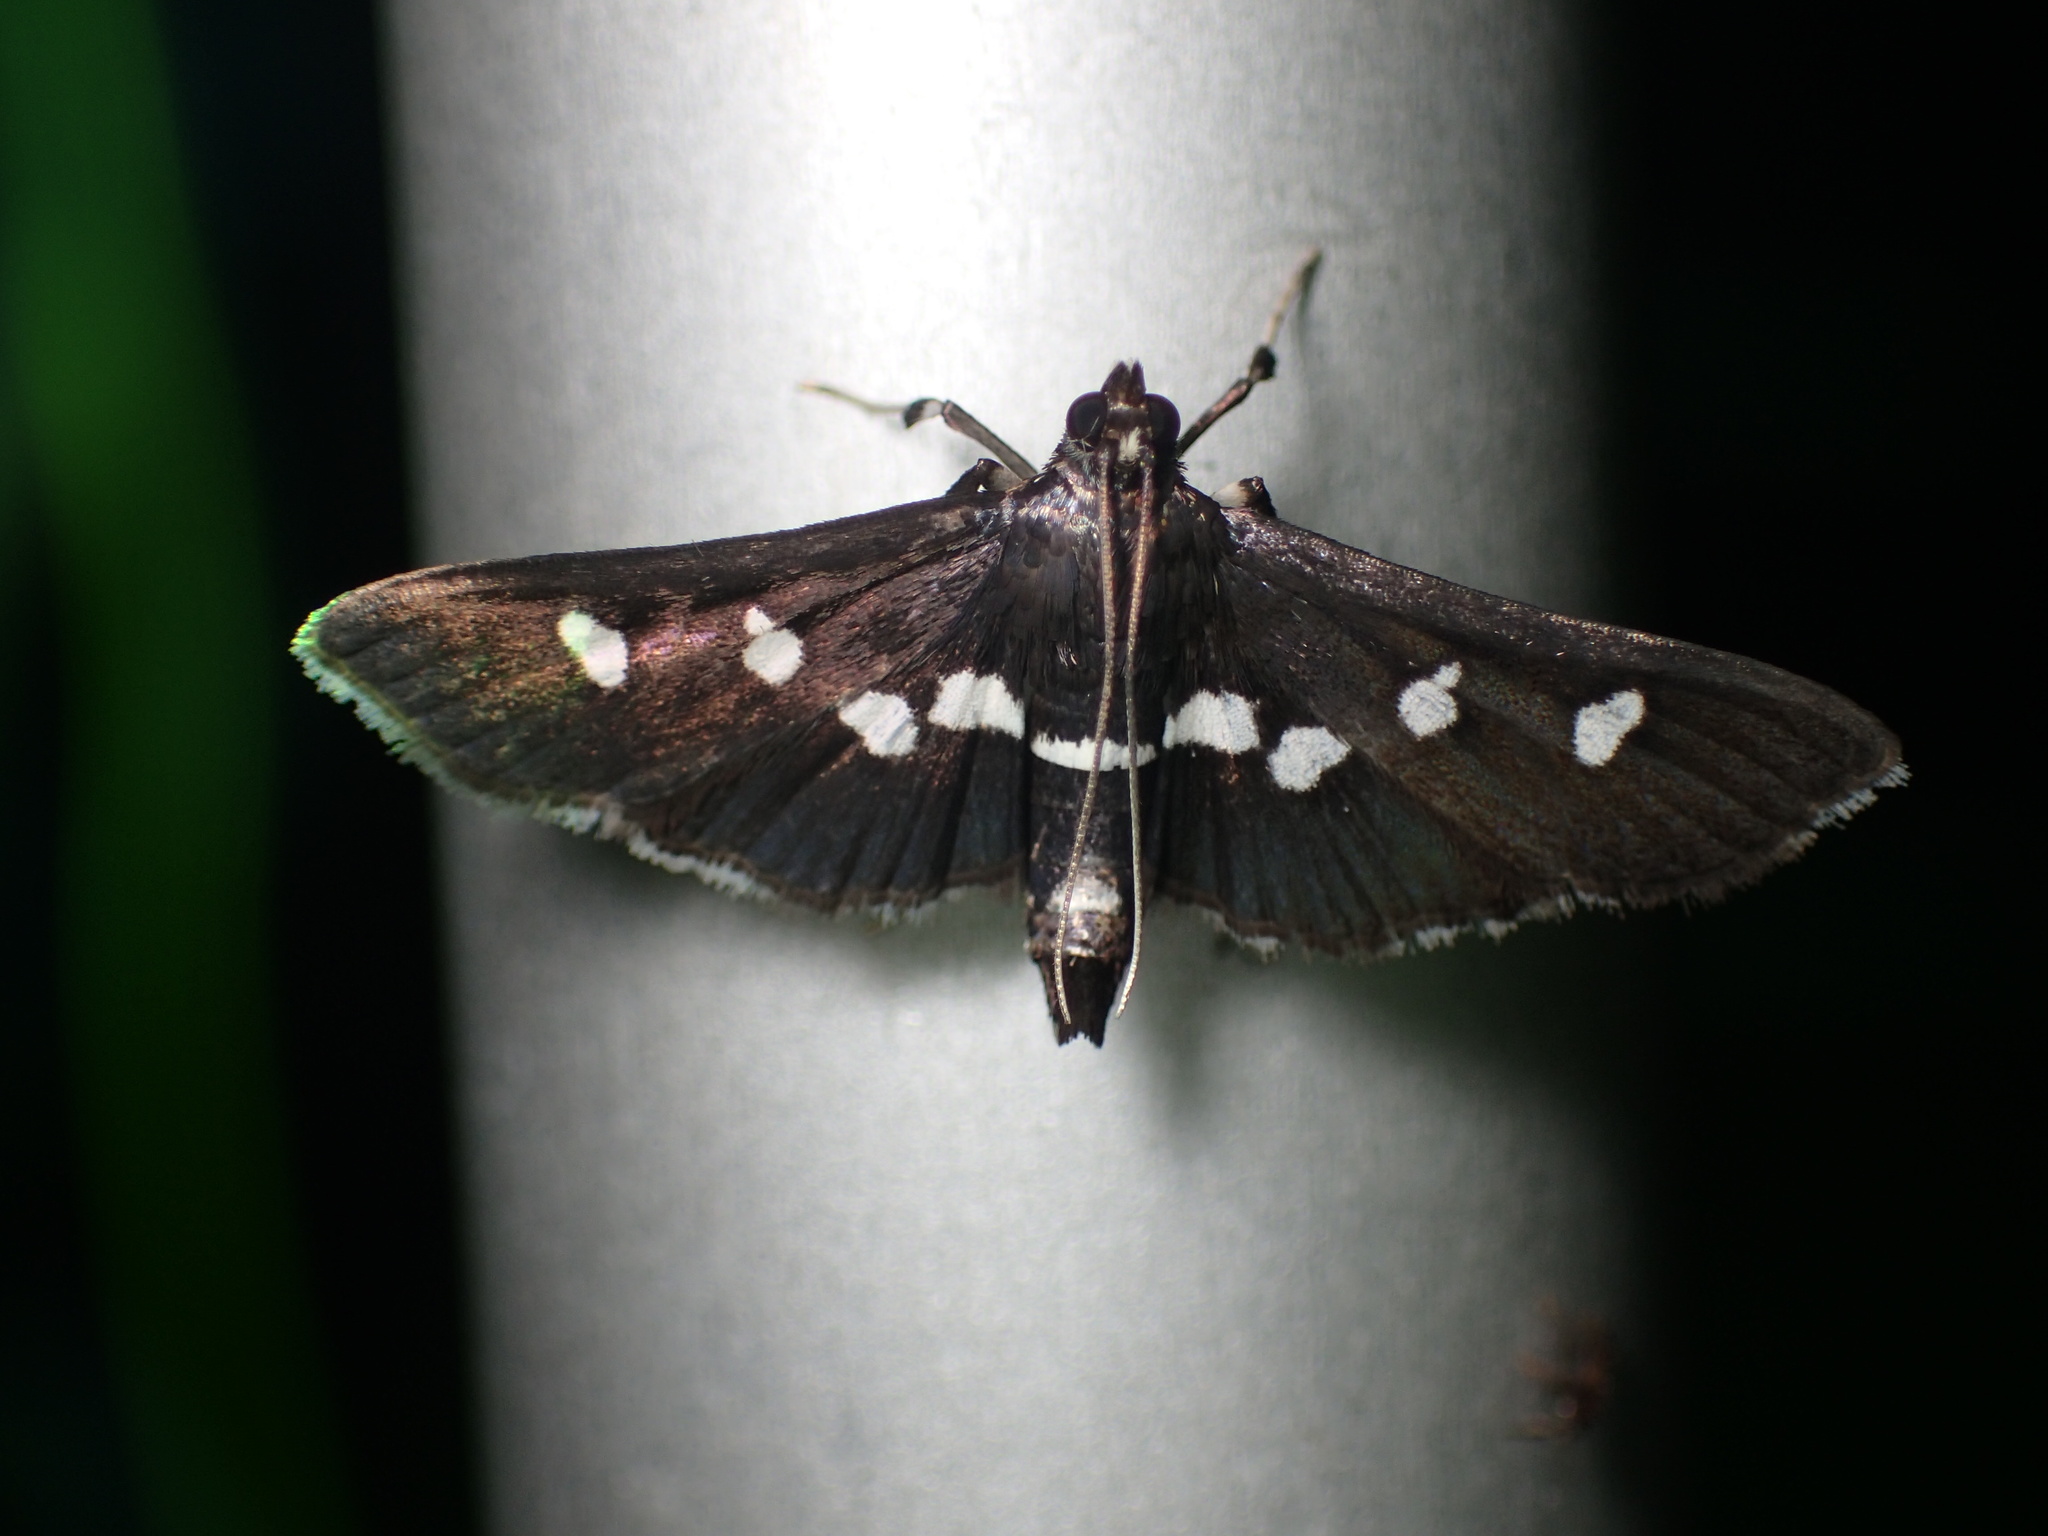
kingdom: Animalia
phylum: Arthropoda
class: Insecta
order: Lepidoptera
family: Crambidae
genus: Desmia
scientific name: Desmia
